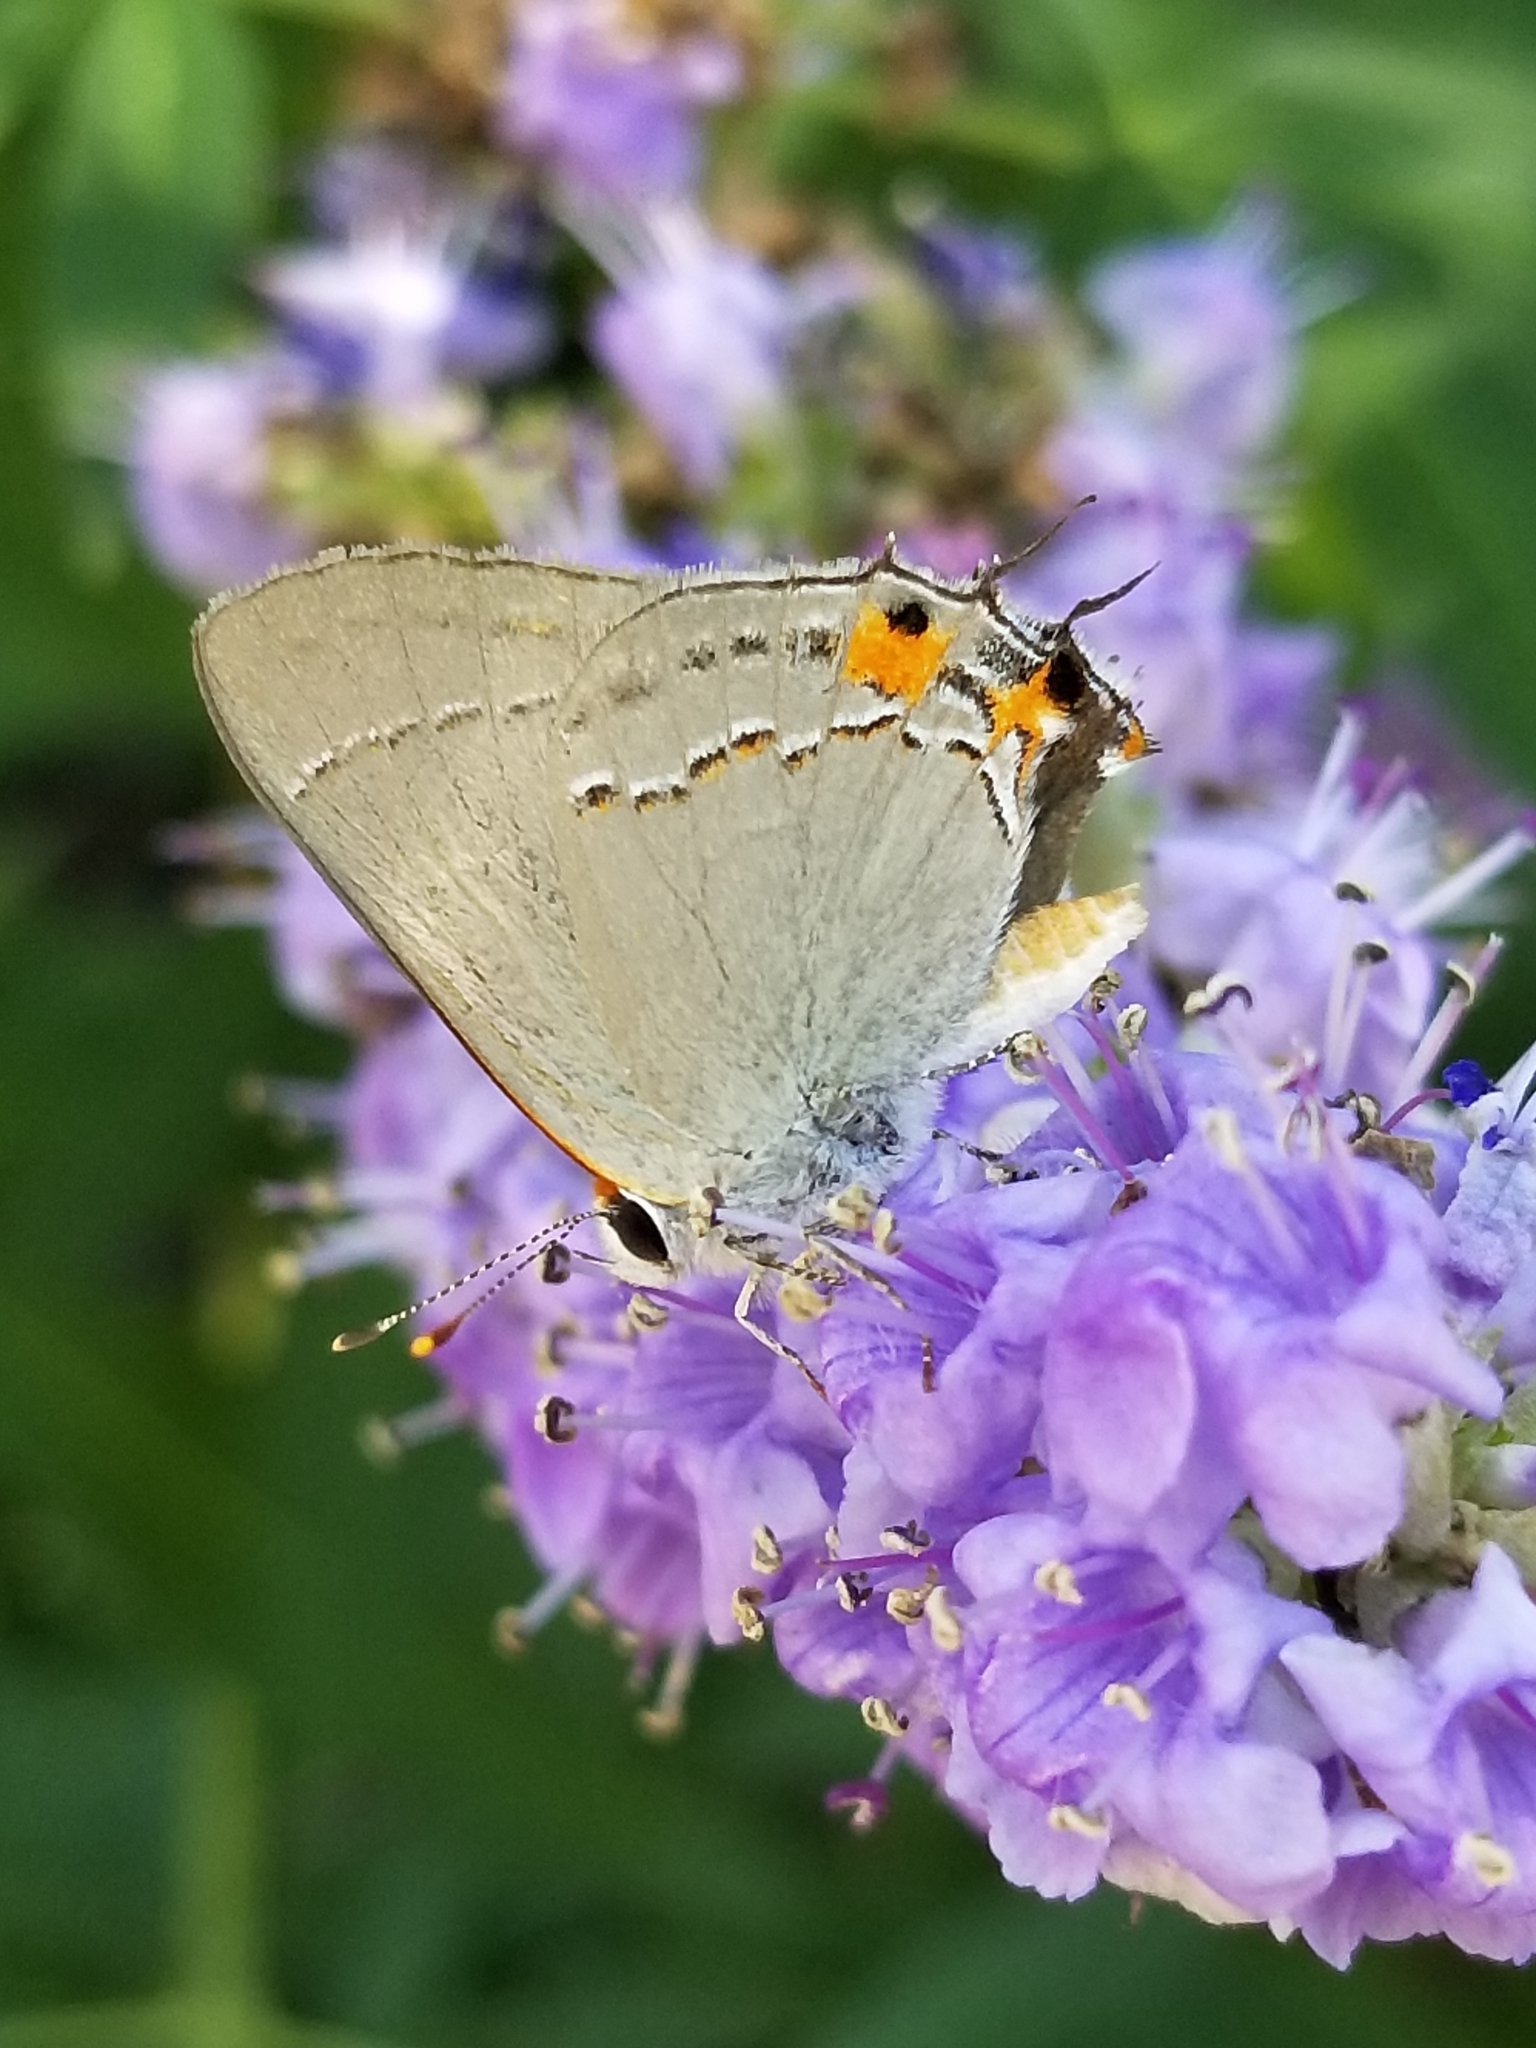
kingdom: Animalia
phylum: Arthropoda
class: Insecta
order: Lepidoptera
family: Lycaenidae
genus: Strymon
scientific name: Strymon melinus
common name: Gray hairstreak
